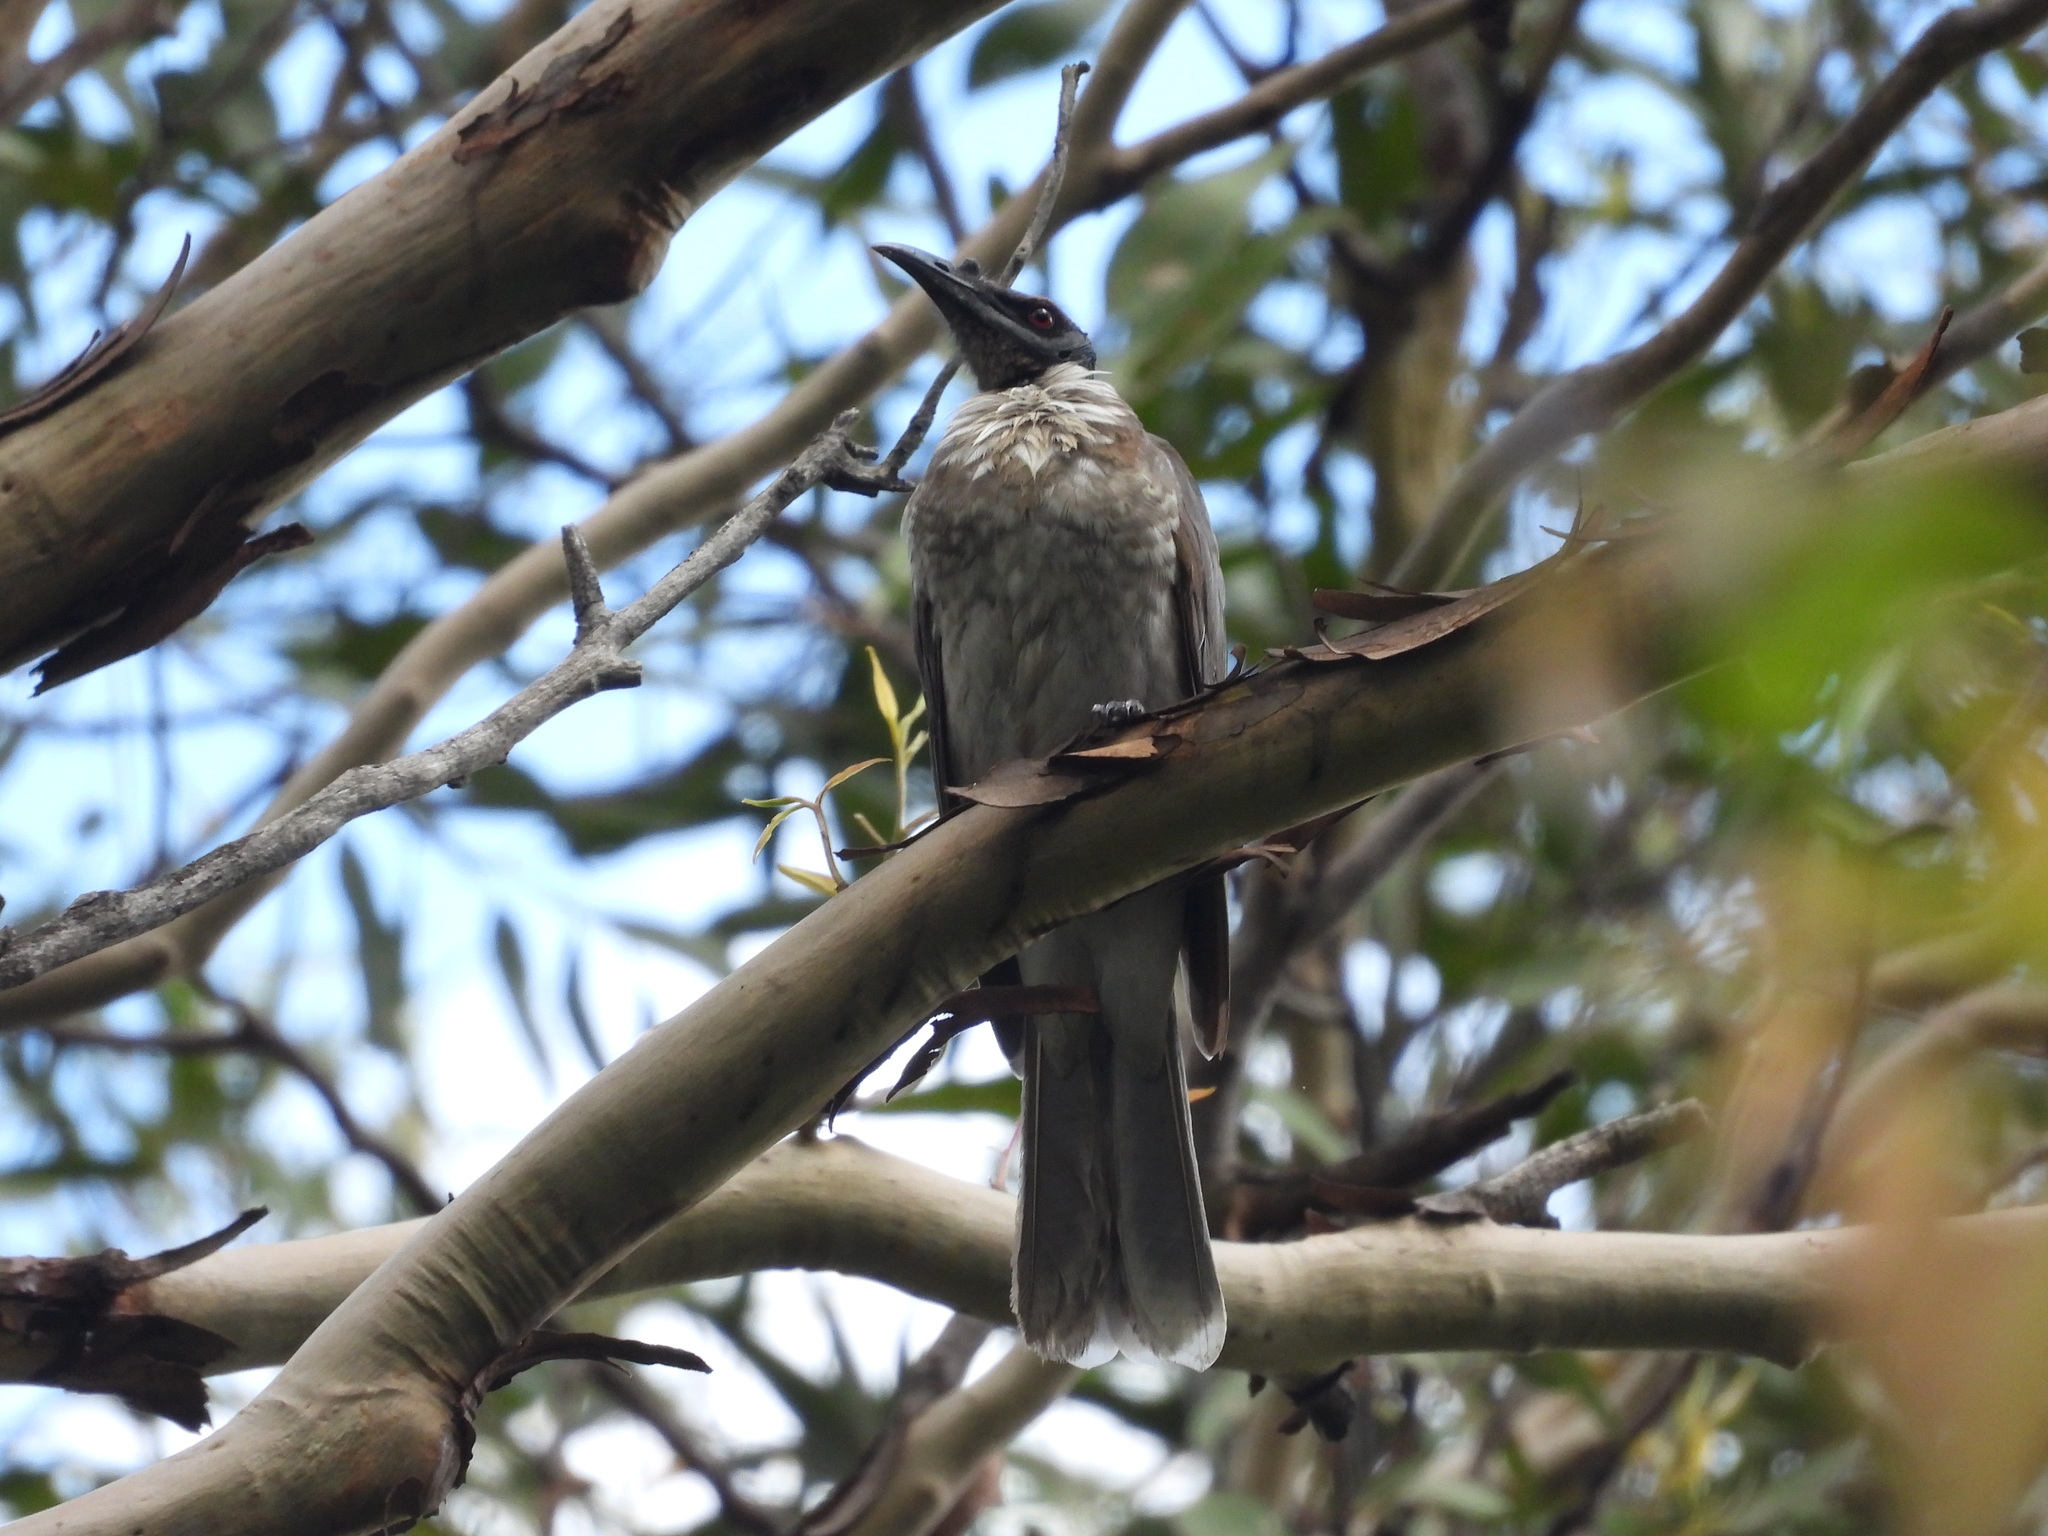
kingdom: Animalia
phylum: Chordata
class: Aves
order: Passeriformes
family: Meliphagidae
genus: Philemon
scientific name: Philemon corniculatus
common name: Noisy friarbird
